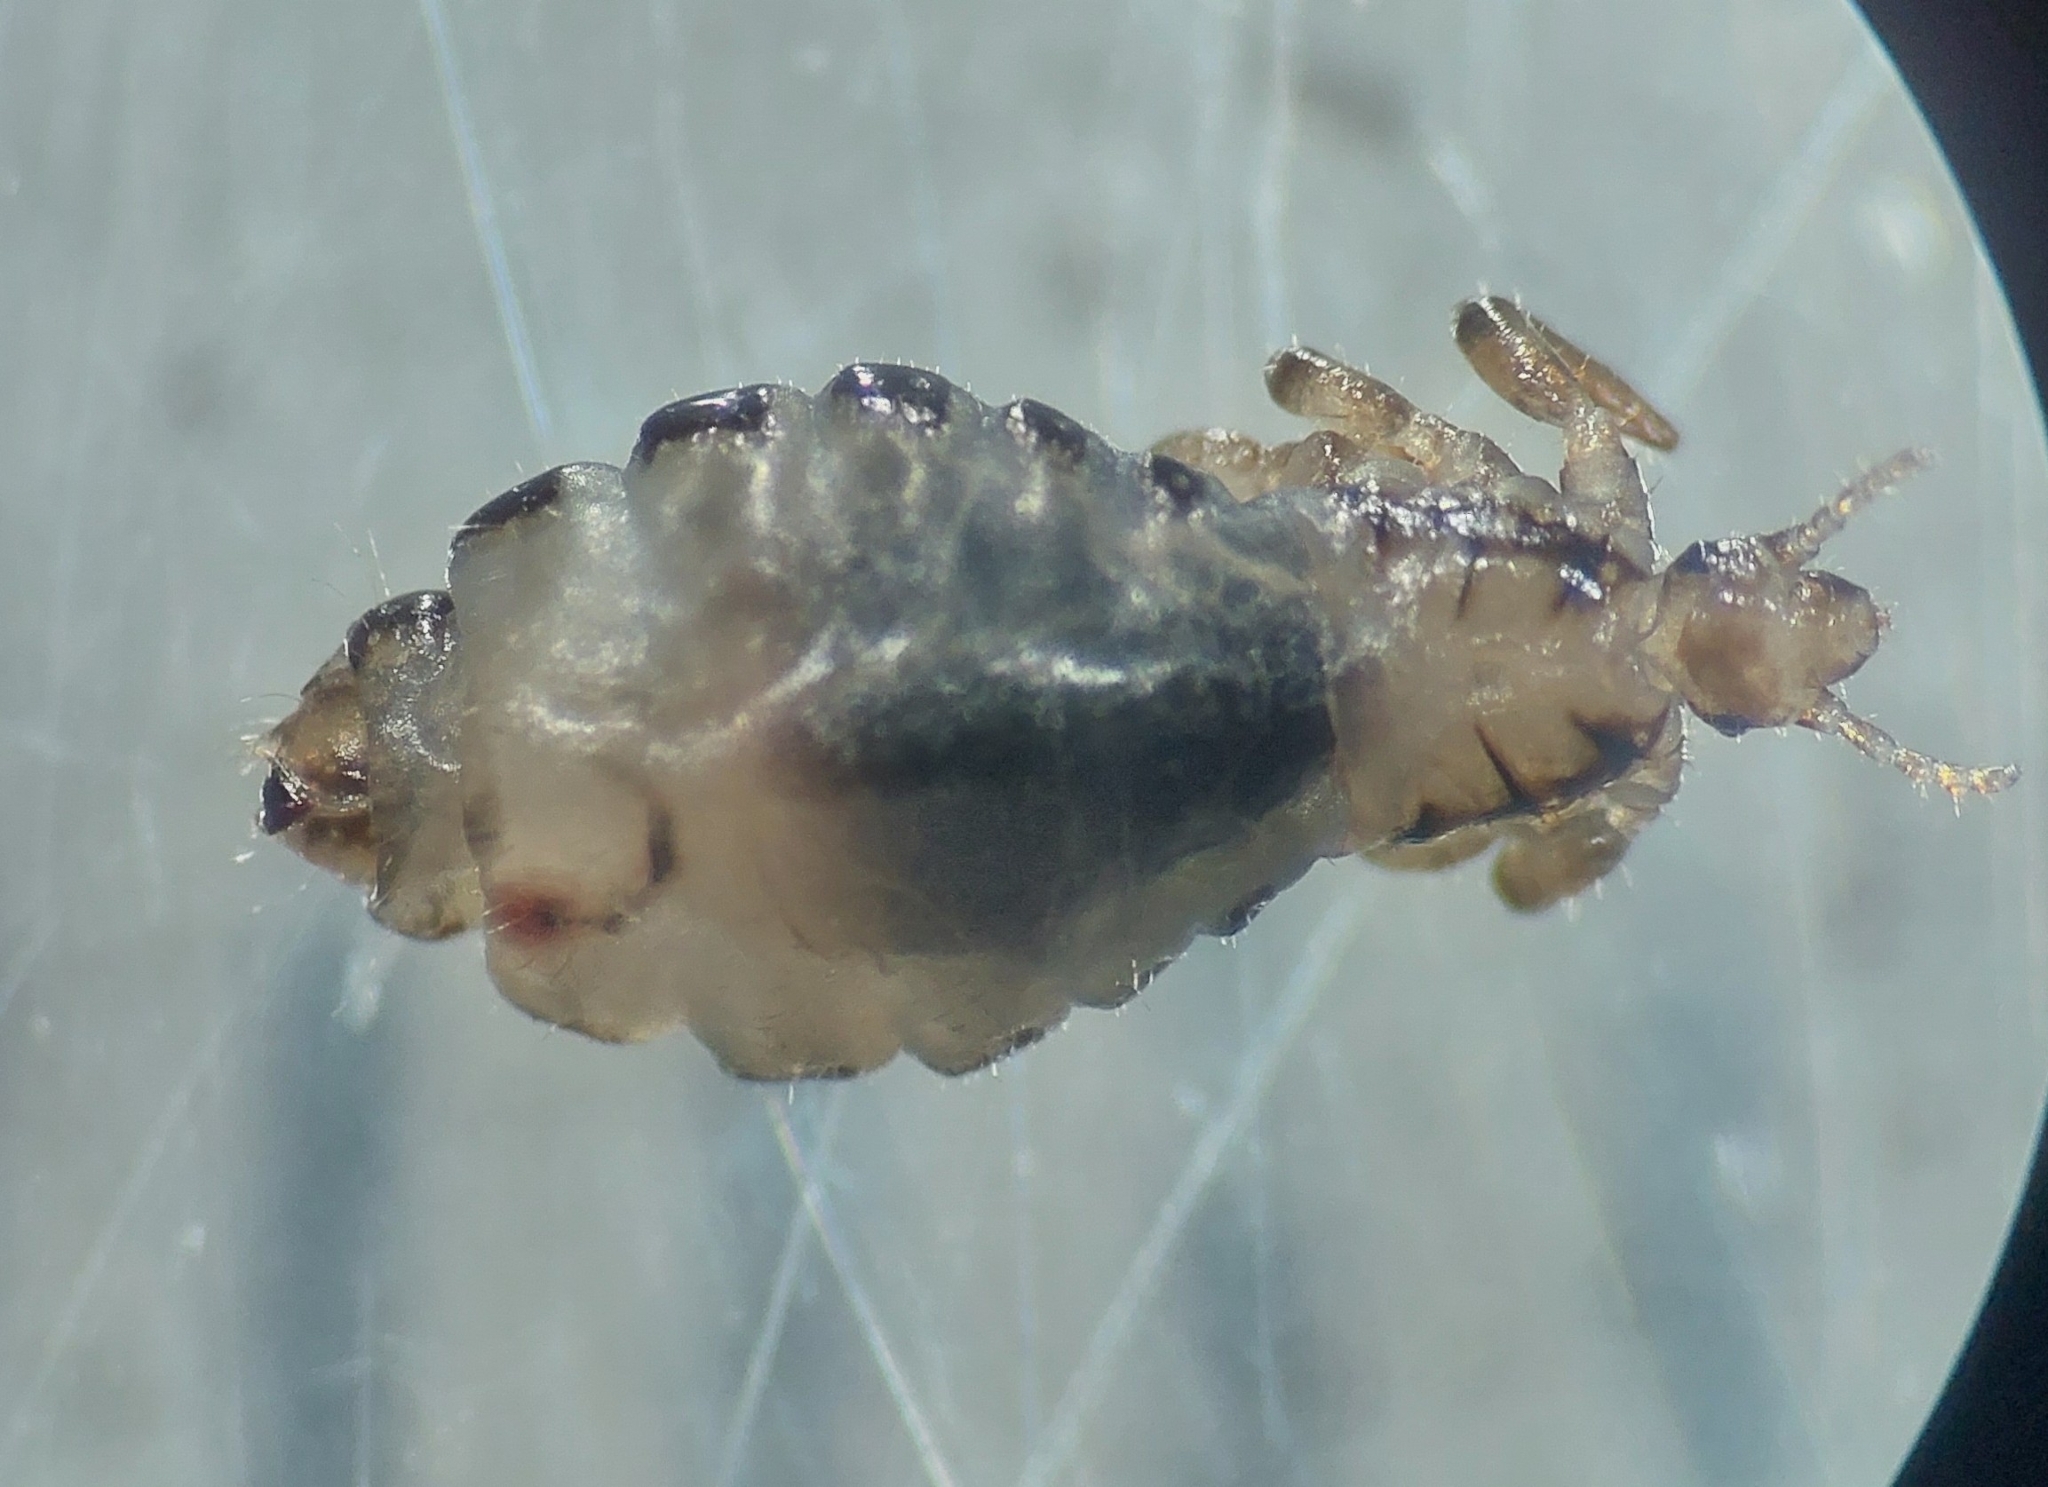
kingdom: Animalia
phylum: Arthropoda
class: Insecta
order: Psocodea
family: Pediculidae
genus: Pediculus
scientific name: Pediculus humanus
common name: Body louse
